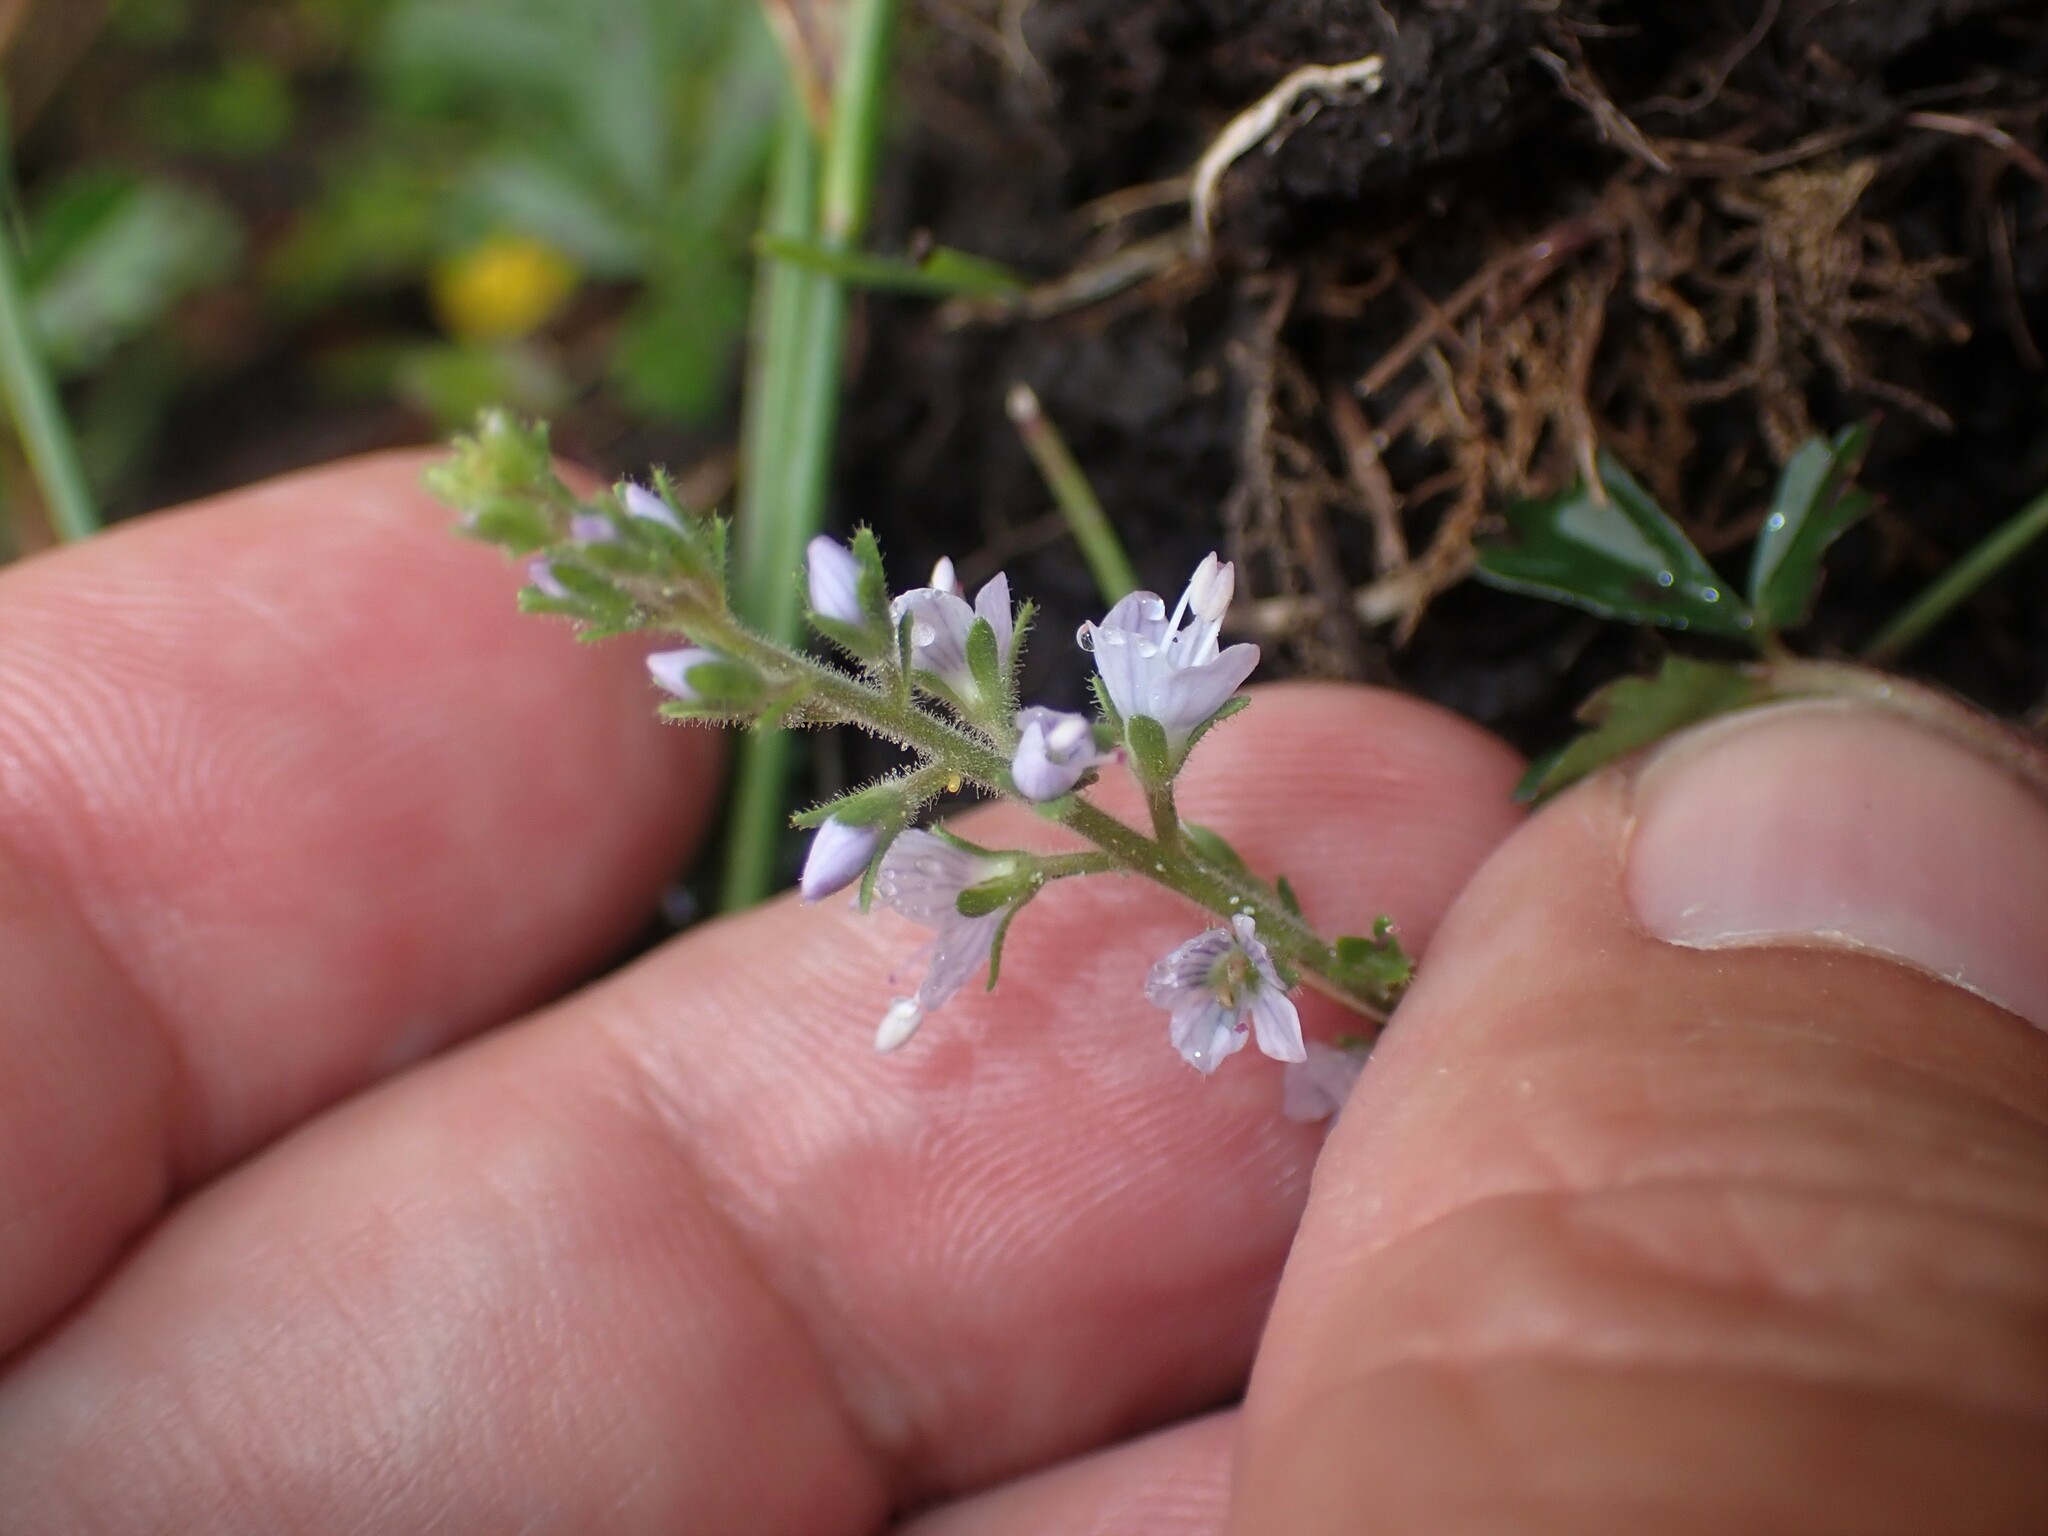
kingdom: Plantae
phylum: Tracheophyta
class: Magnoliopsida
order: Lamiales
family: Plantaginaceae
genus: Veronica
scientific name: Veronica officinalis
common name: Common speedwell
